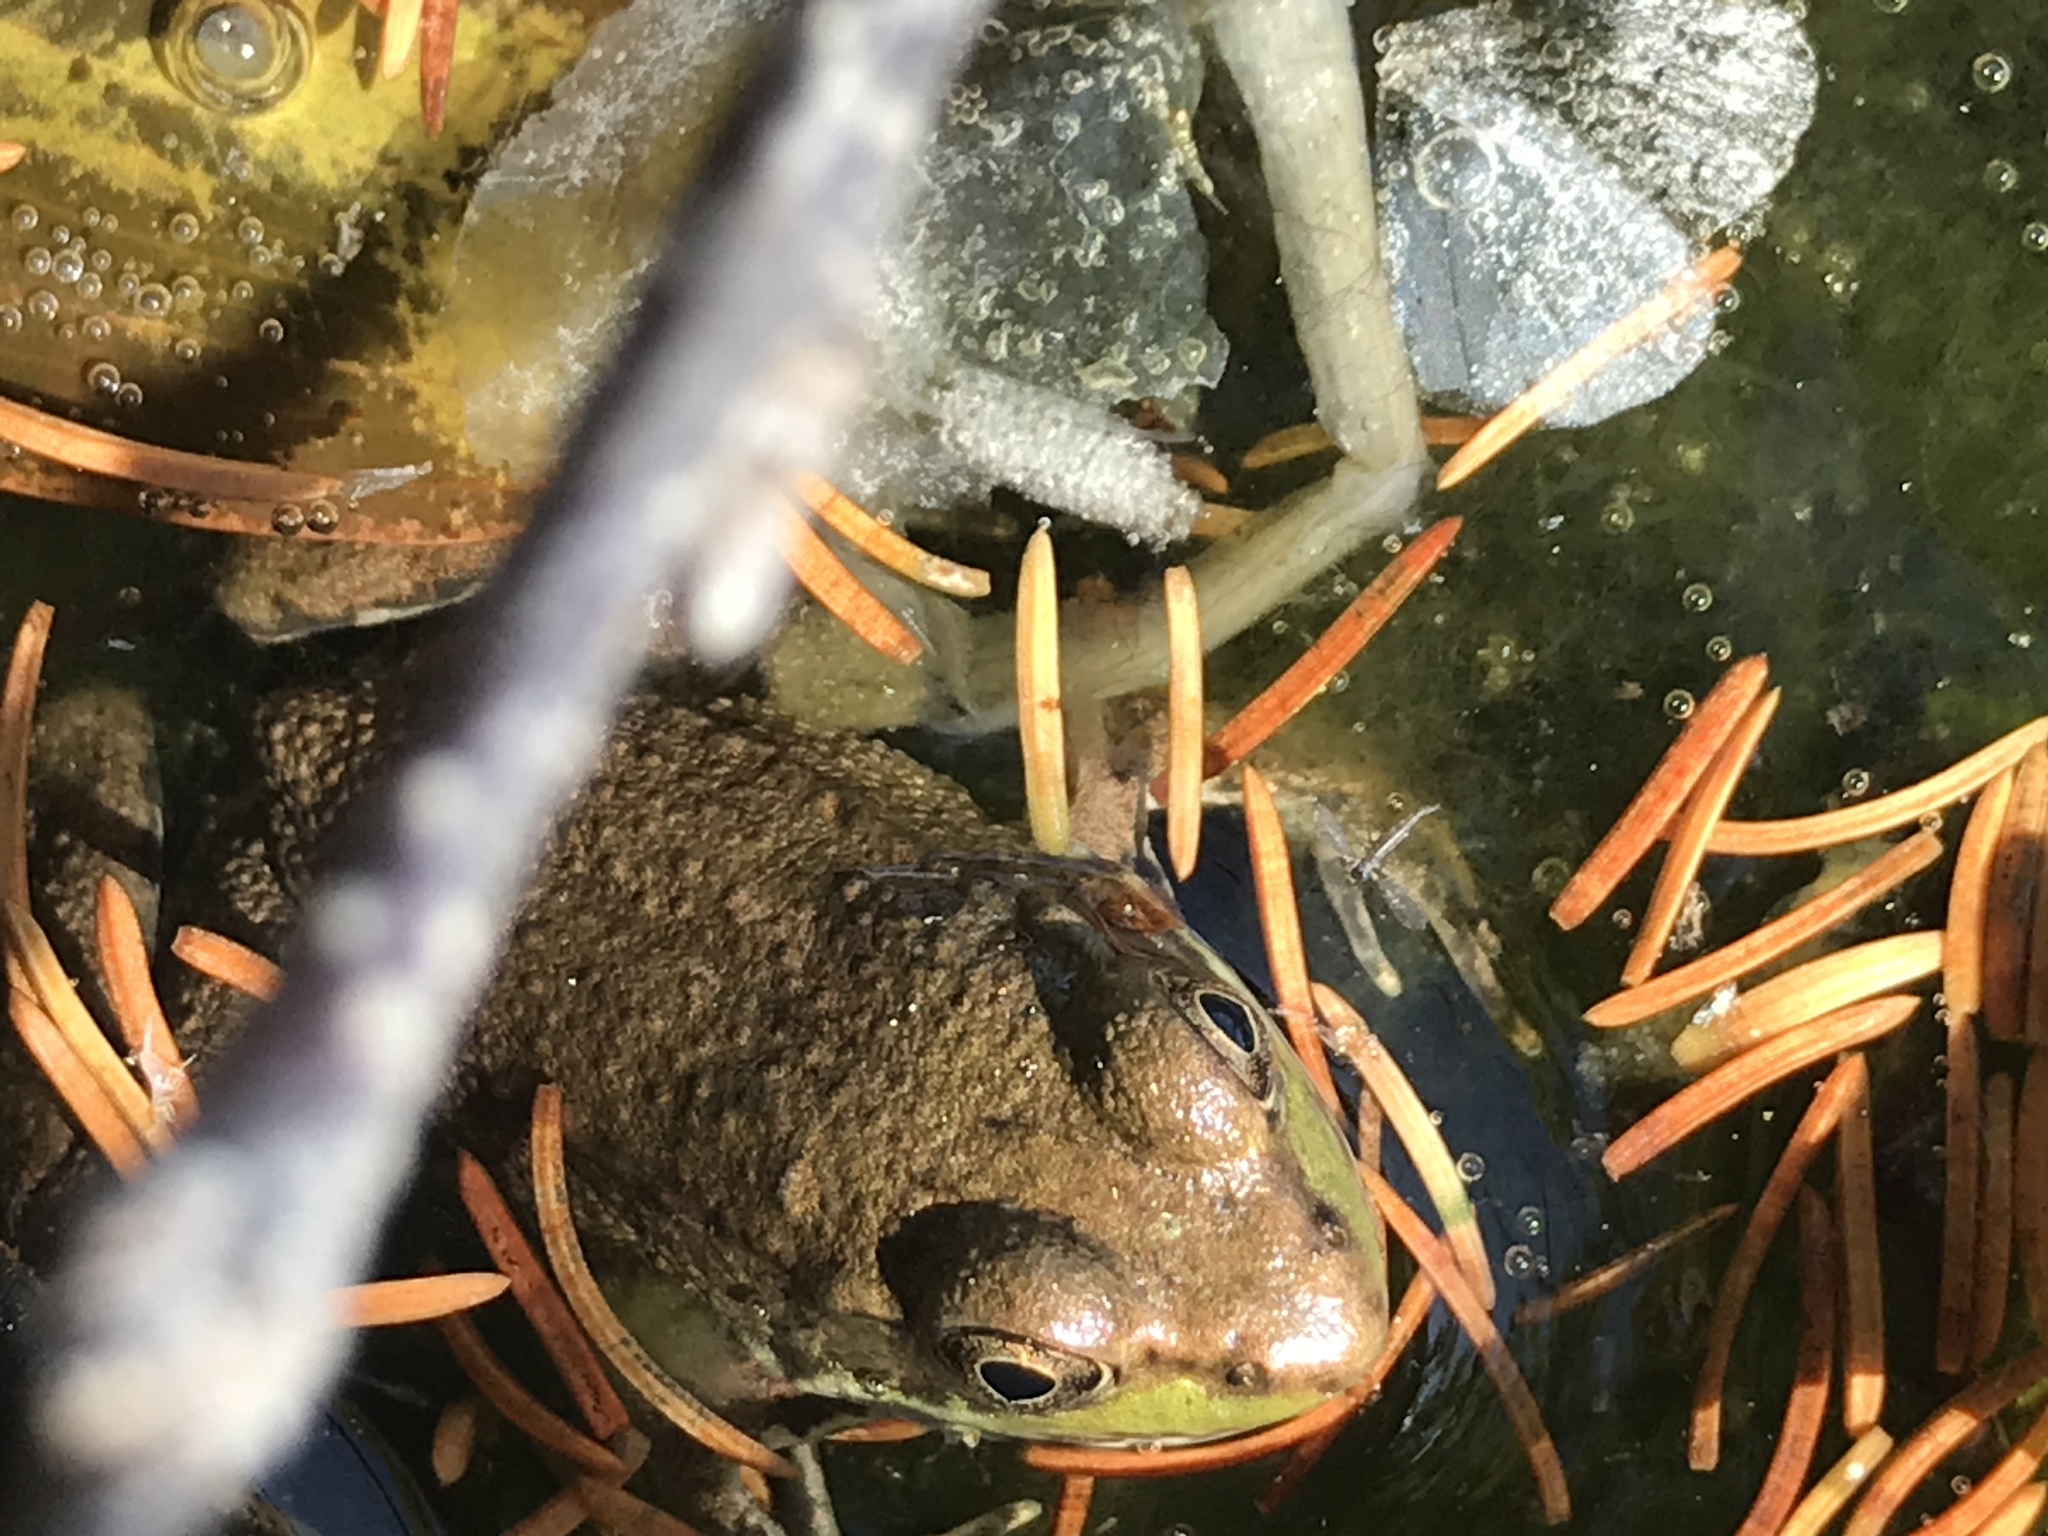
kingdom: Animalia
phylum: Chordata
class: Amphibia
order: Anura
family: Ranidae
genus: Lithobates
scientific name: Lithobates clamitans
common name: Green frog
